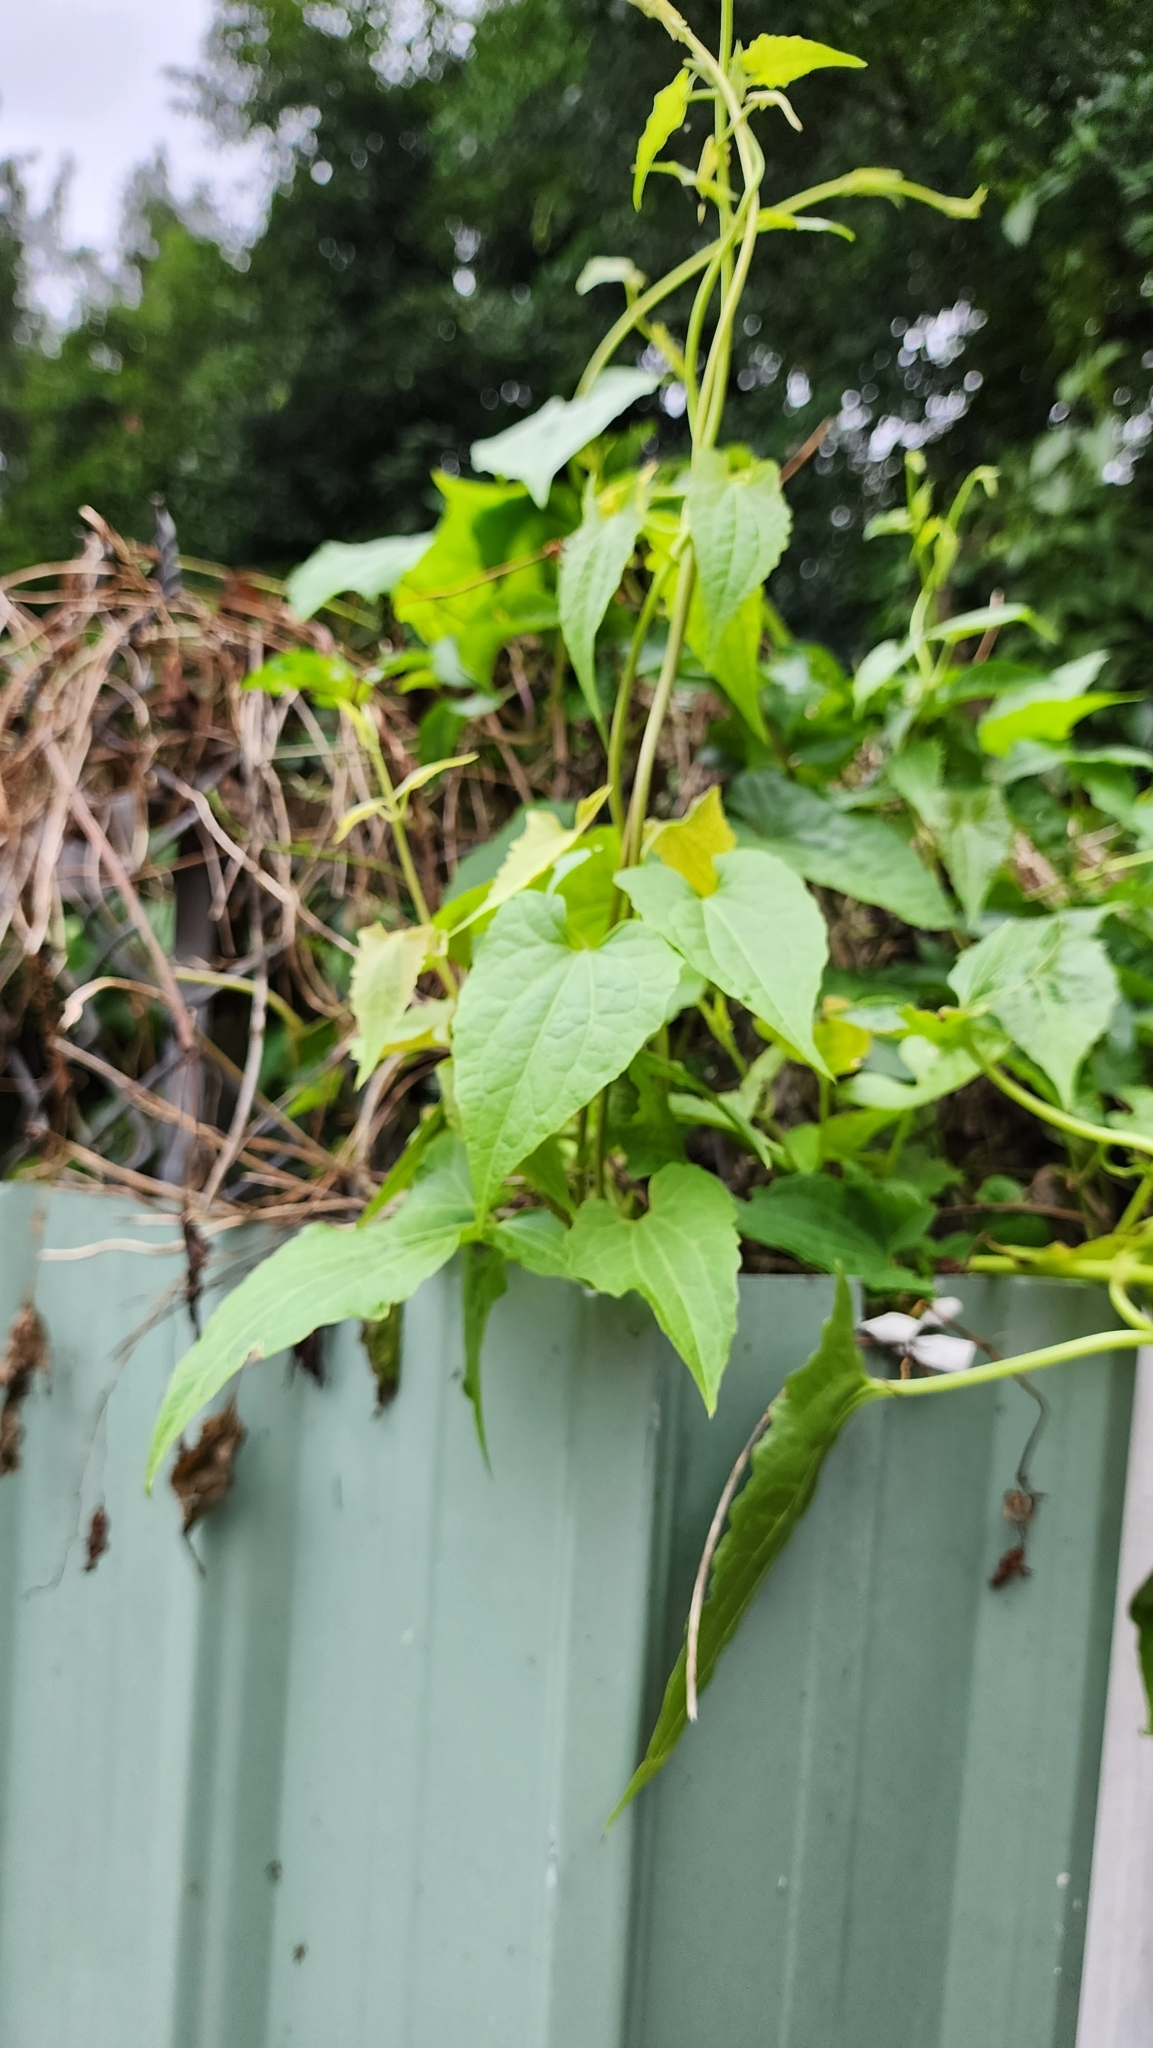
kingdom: Plantae
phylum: Tracheophyta
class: Magnoliopsida
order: Asterales
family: Asteraceae
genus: Mikania
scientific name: Mikania micrantha
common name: Mile-a-minute
